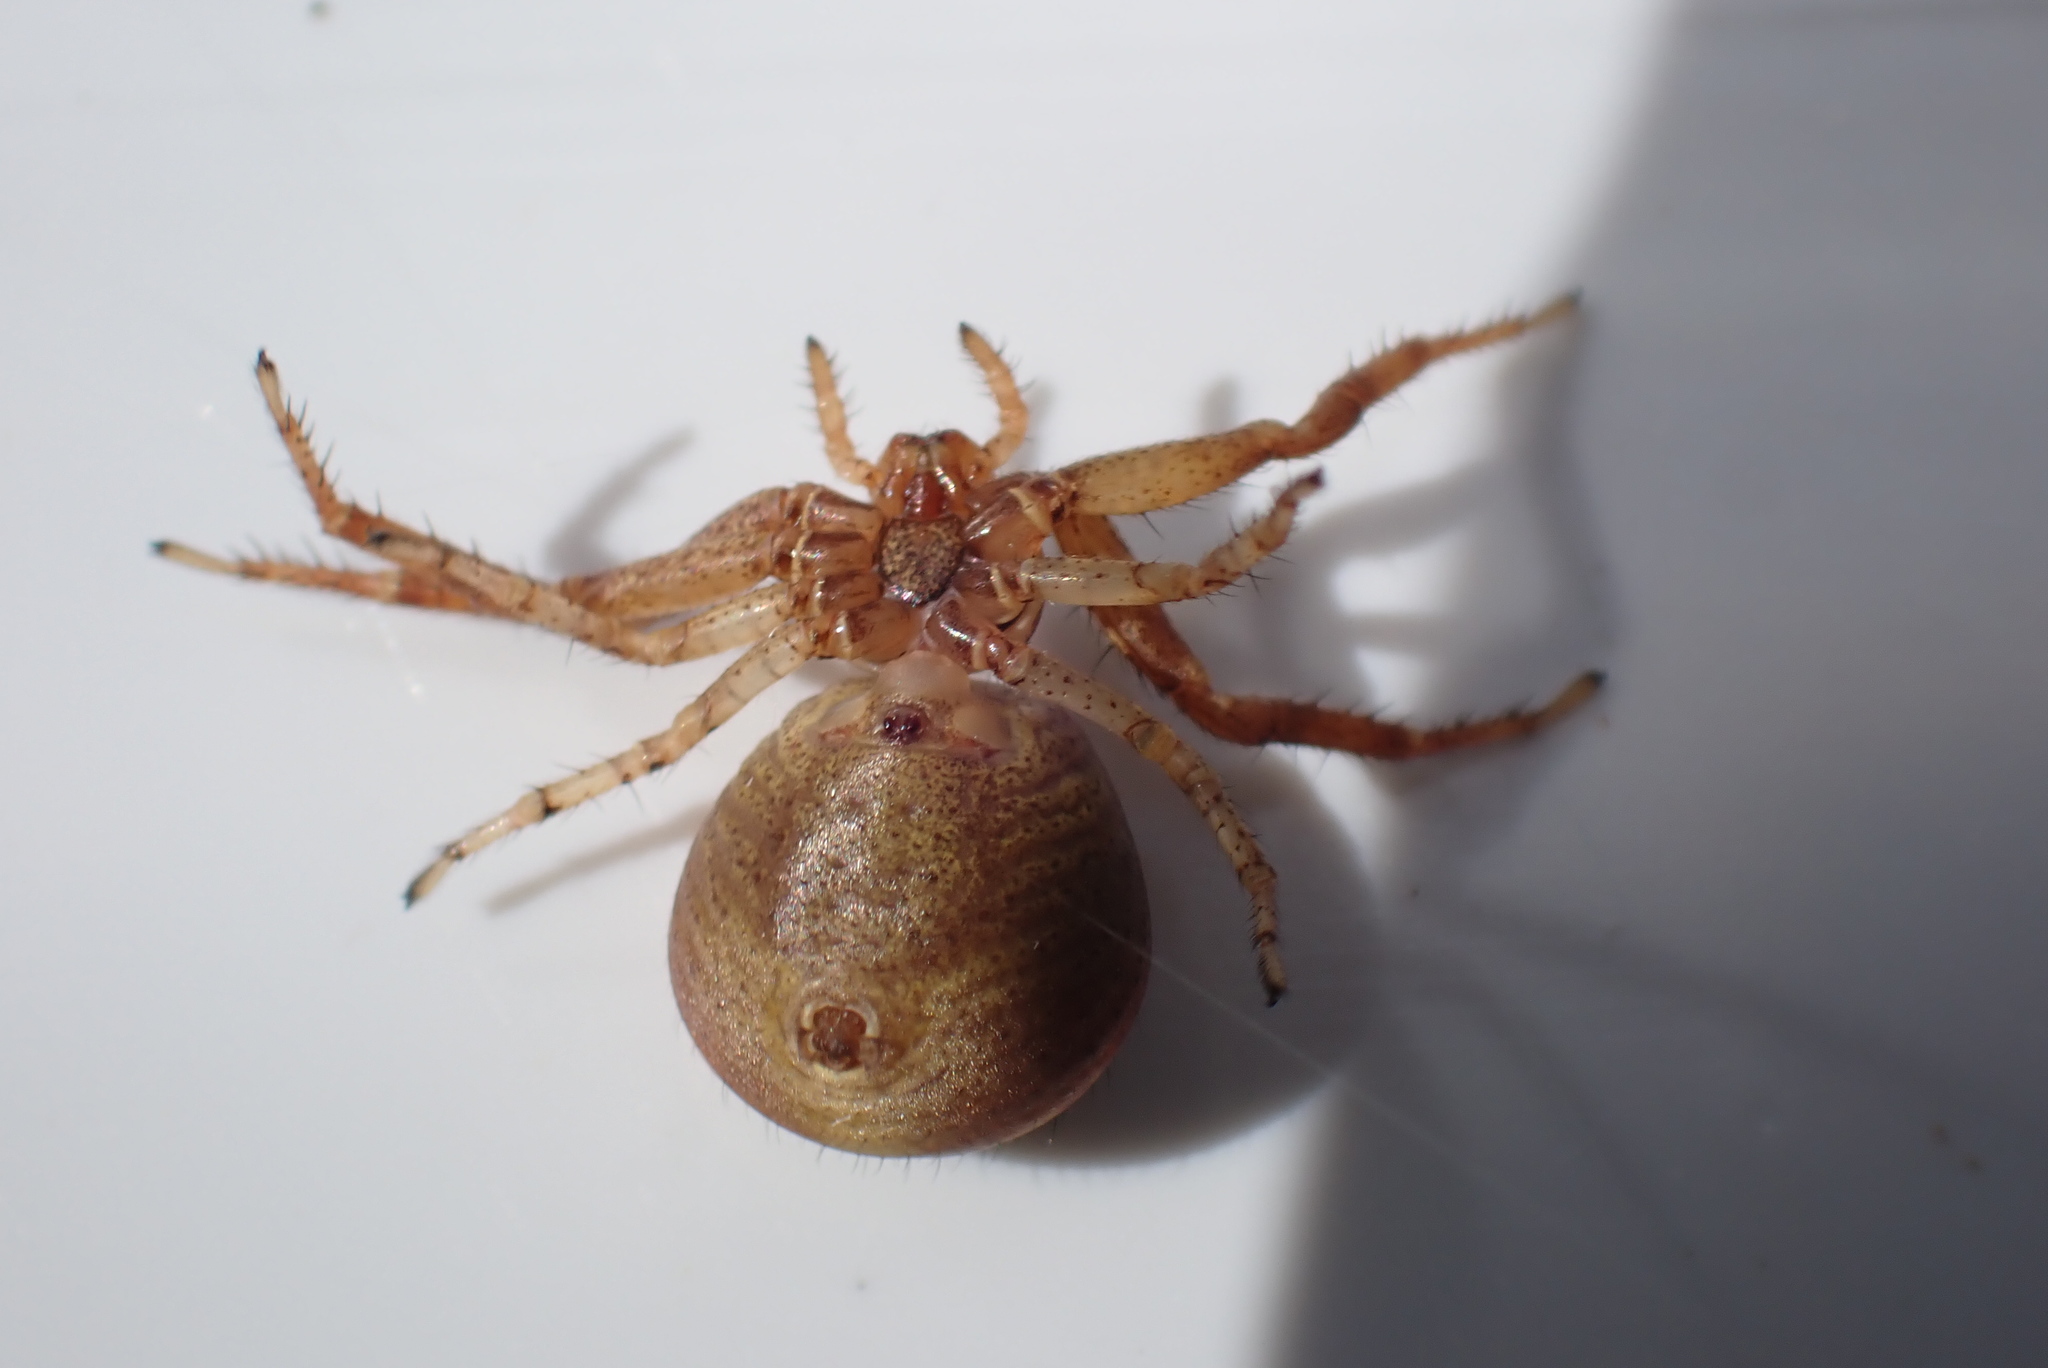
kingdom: Animalia
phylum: Arthropoda
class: Arachnida
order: Araneae
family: Thomisidae
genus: Xysticus
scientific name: Xysticus lanio
